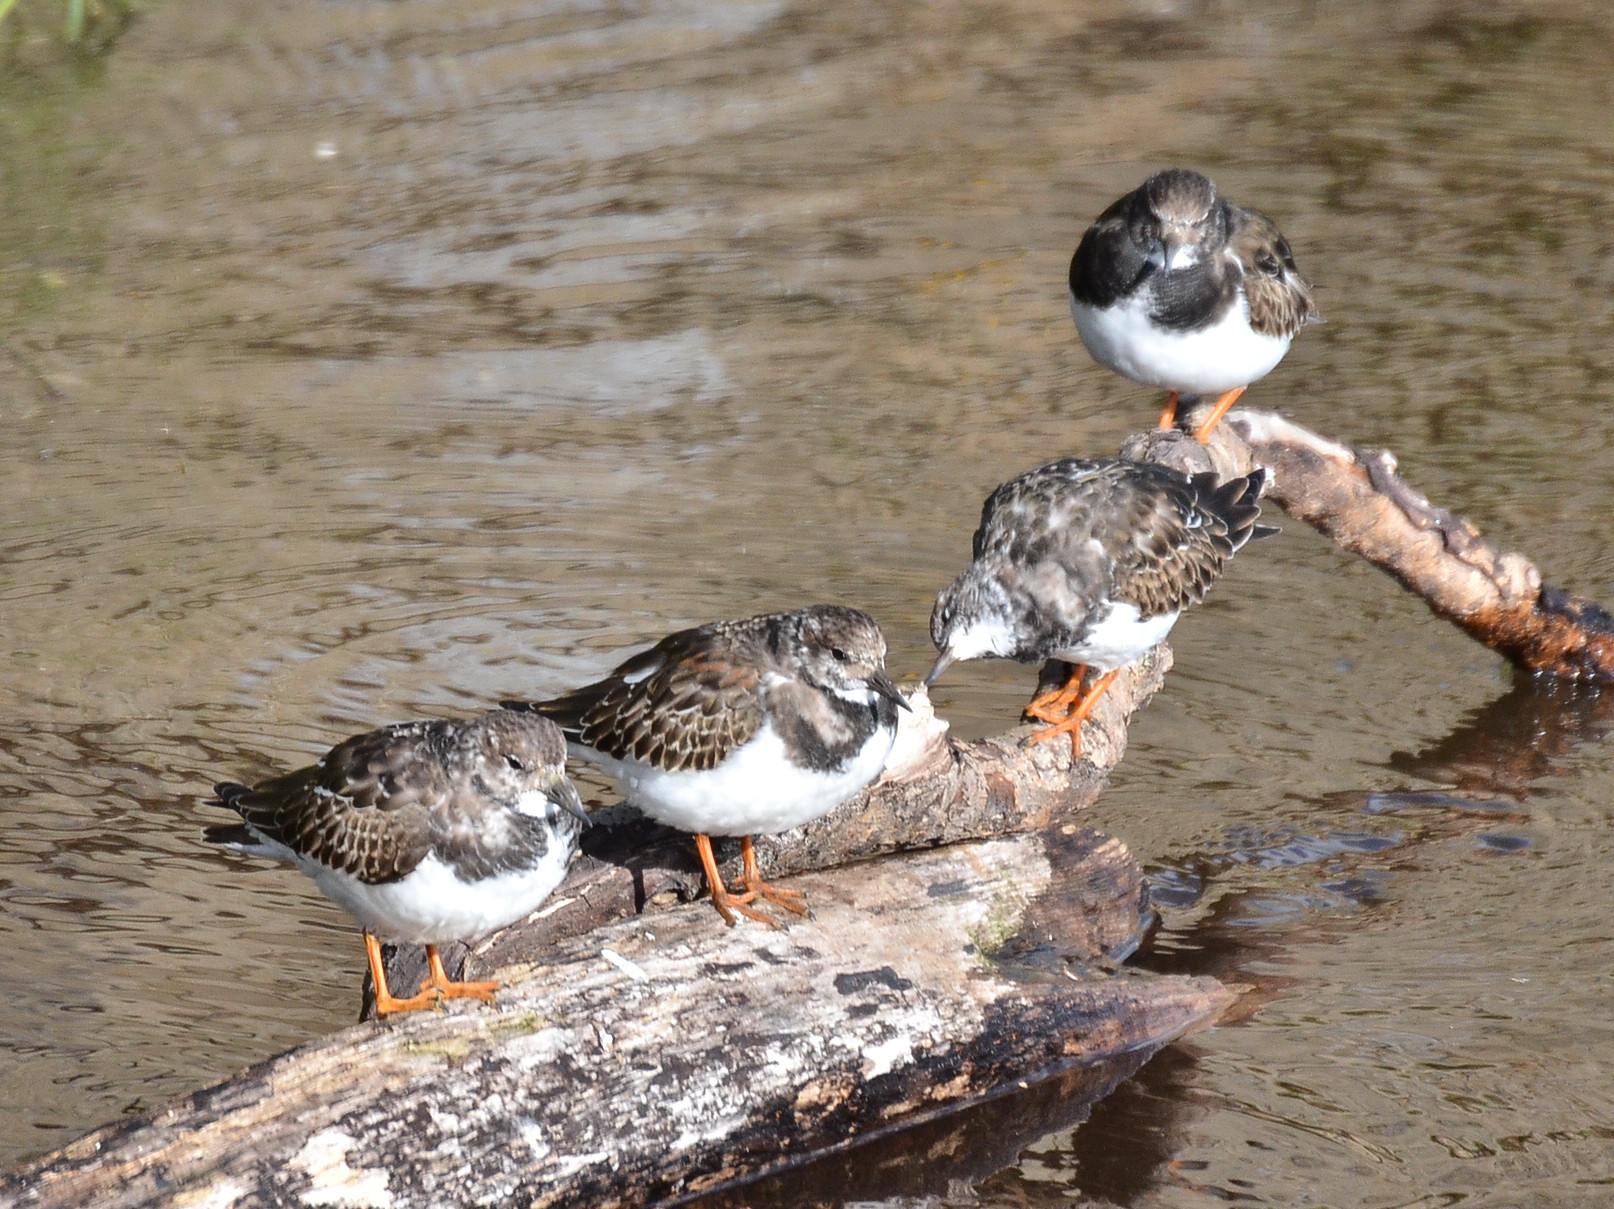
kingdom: Animalia
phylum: Chordata
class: Aves
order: Charadriiformes
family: Scolopacidae
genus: Arenaria
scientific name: Arenaria interpres
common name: Ruddy turnstone
